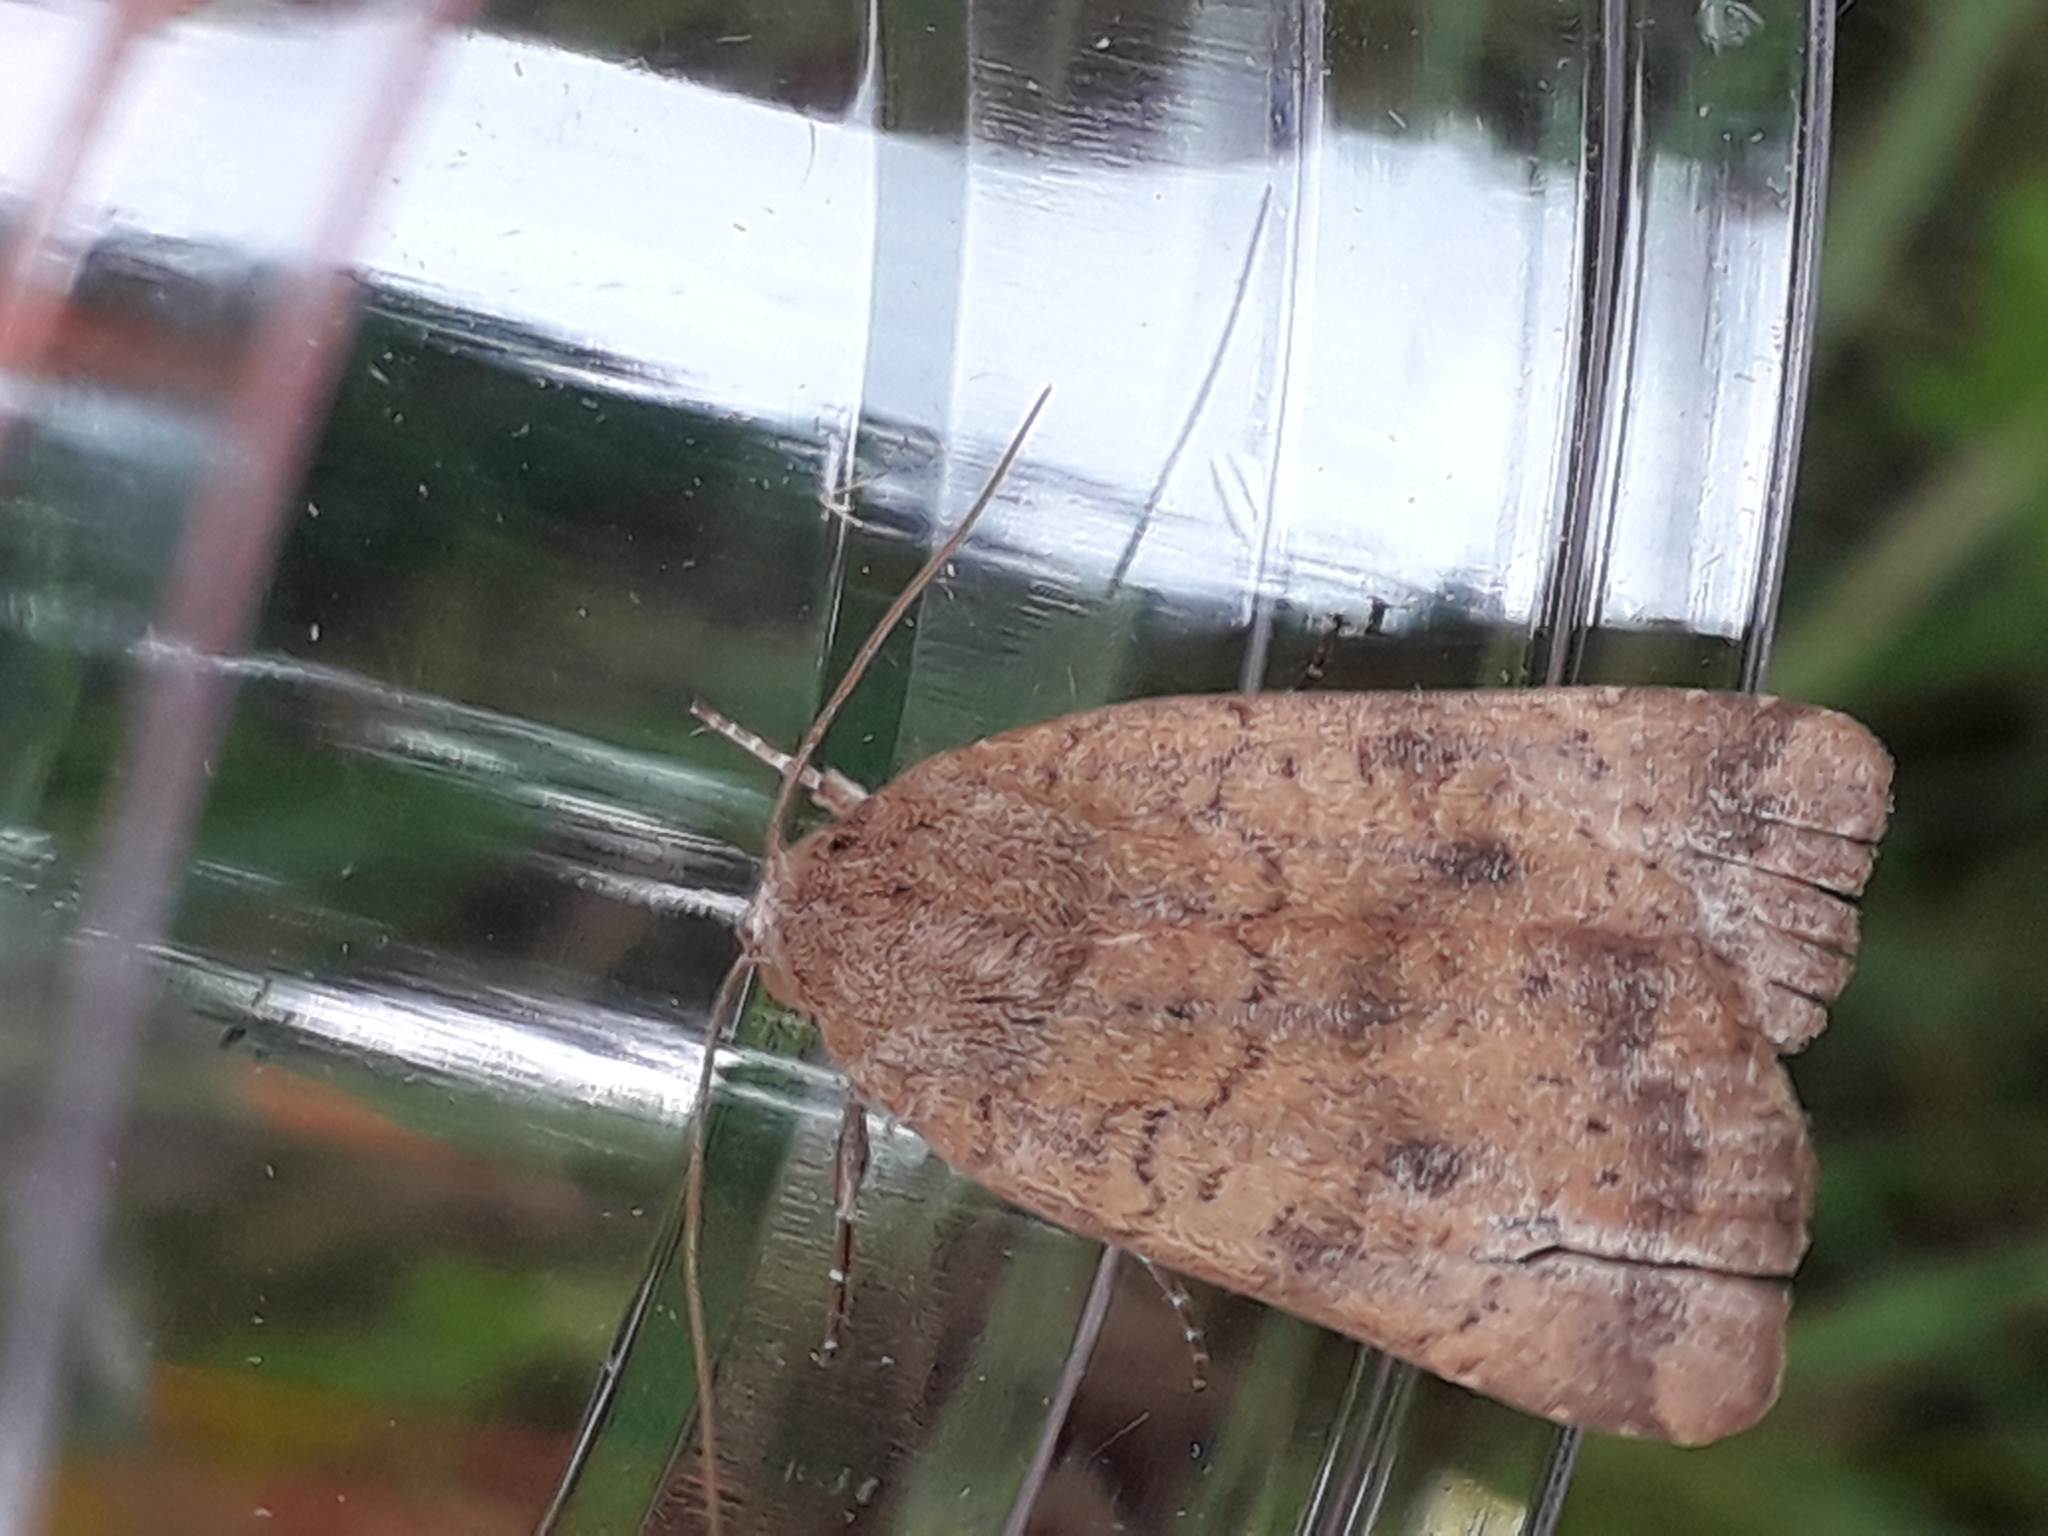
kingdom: Animalia
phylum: Arthropoda
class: Insecta
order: Lepidoptera
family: Noctuidae
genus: Noctua
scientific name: Noctua interjecta
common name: Least yellow underwing
